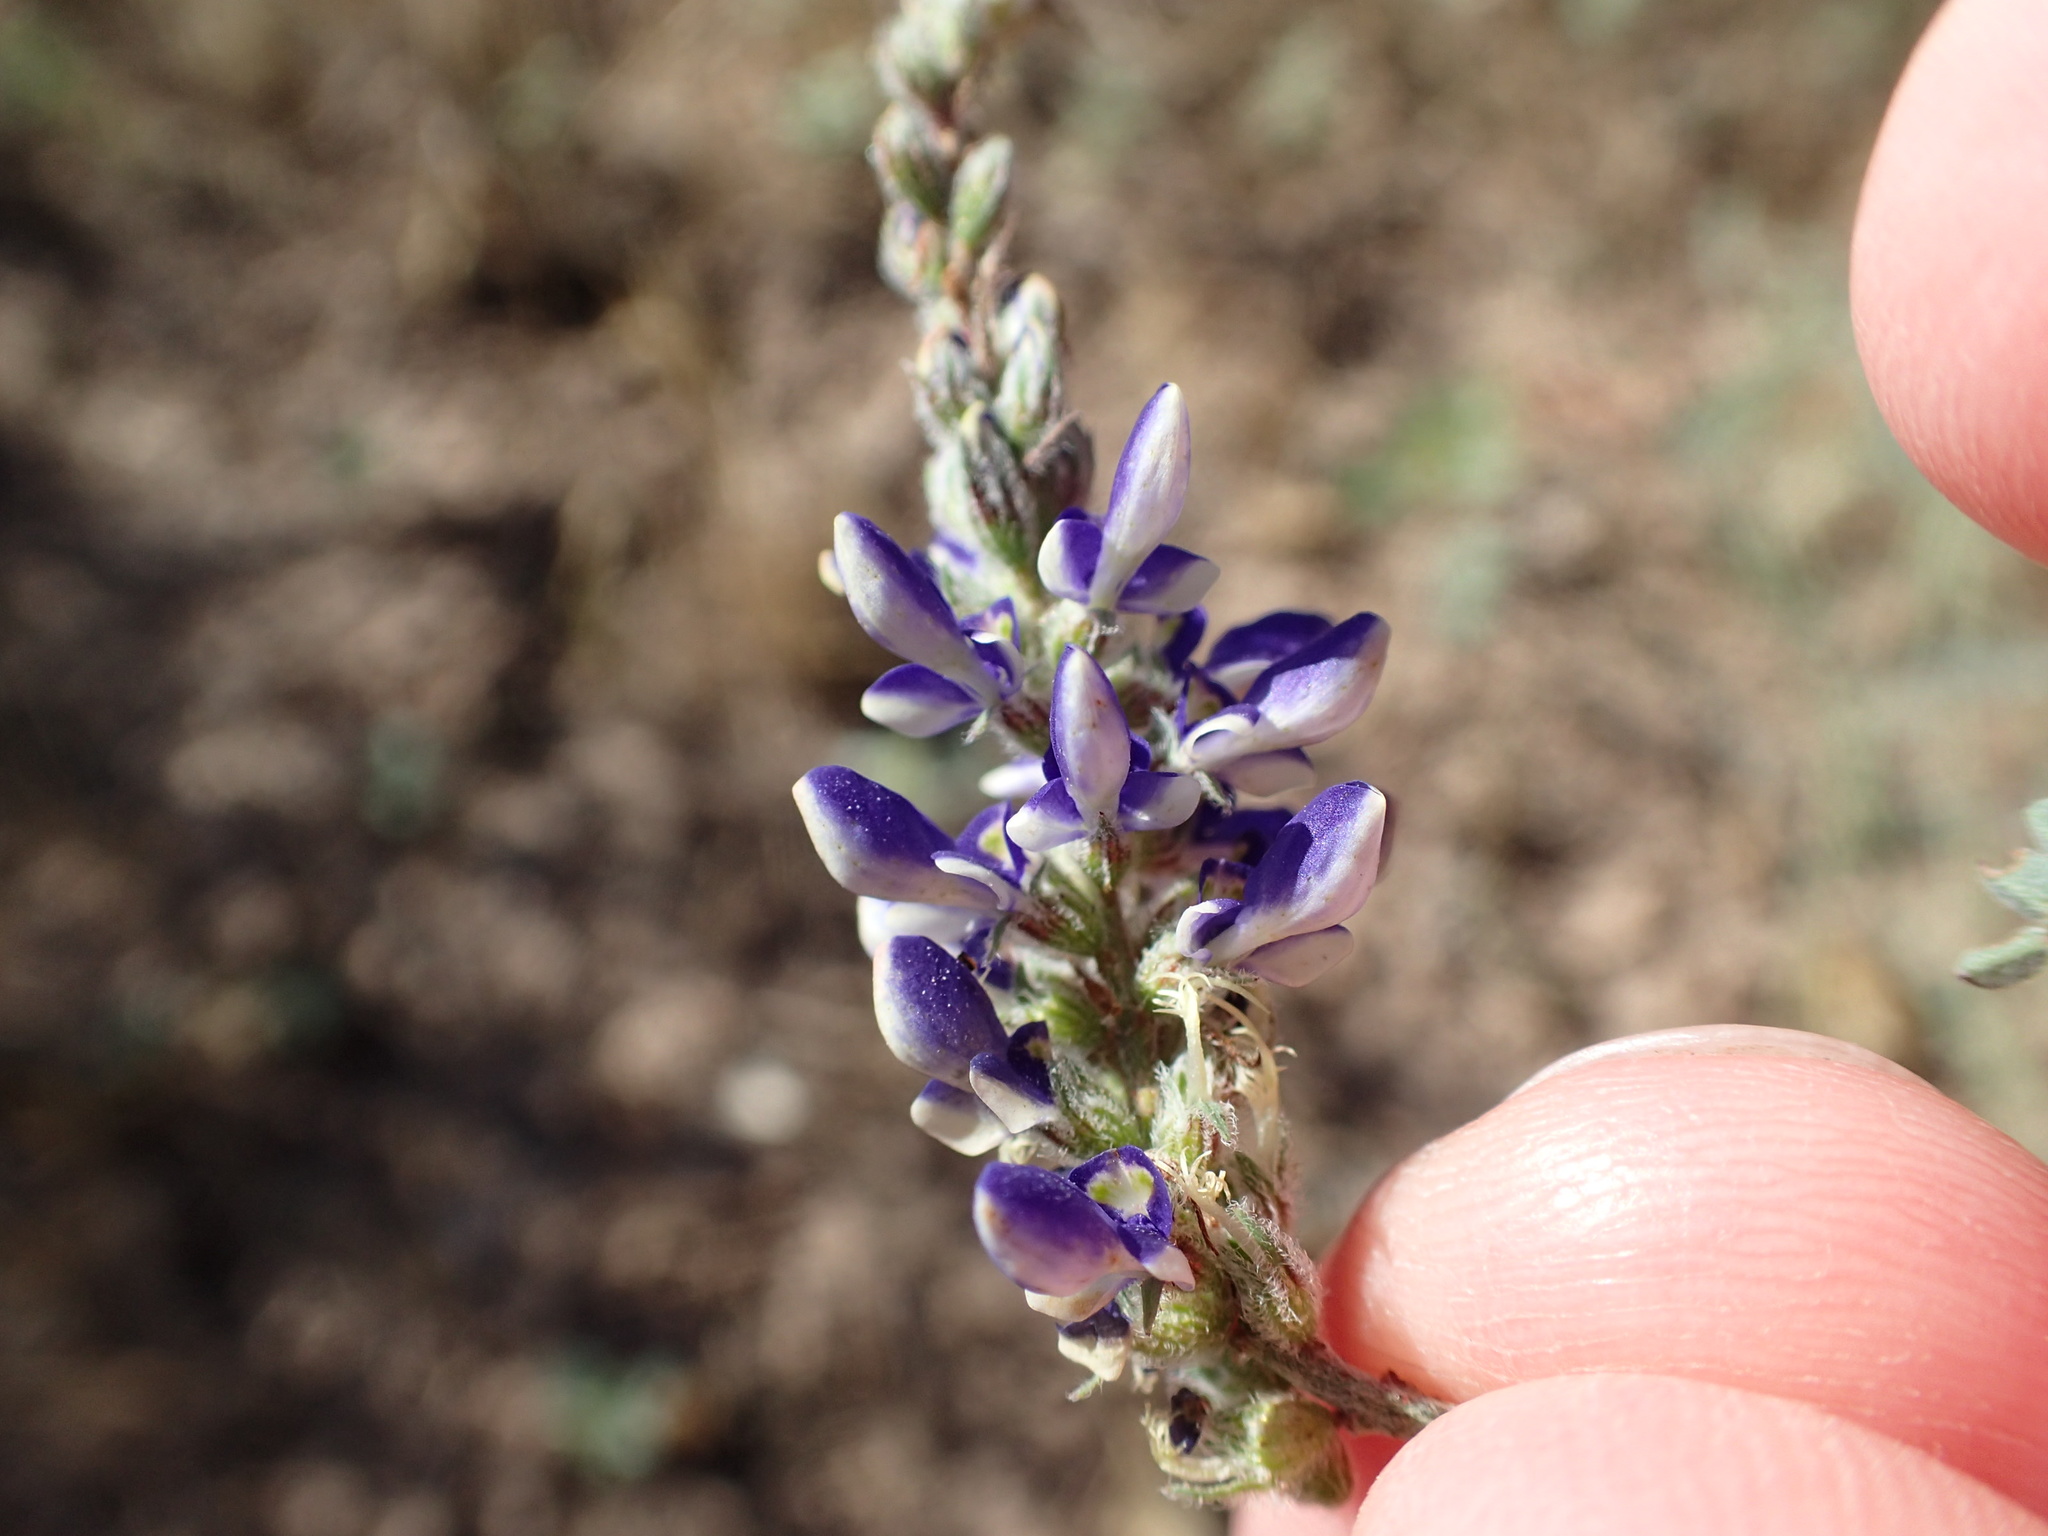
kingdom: Plantae
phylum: Tracheophyta
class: Magnoliopsida
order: Fabales
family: Fabaceae
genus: Marina
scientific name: Marina parryi
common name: Parry's marina
